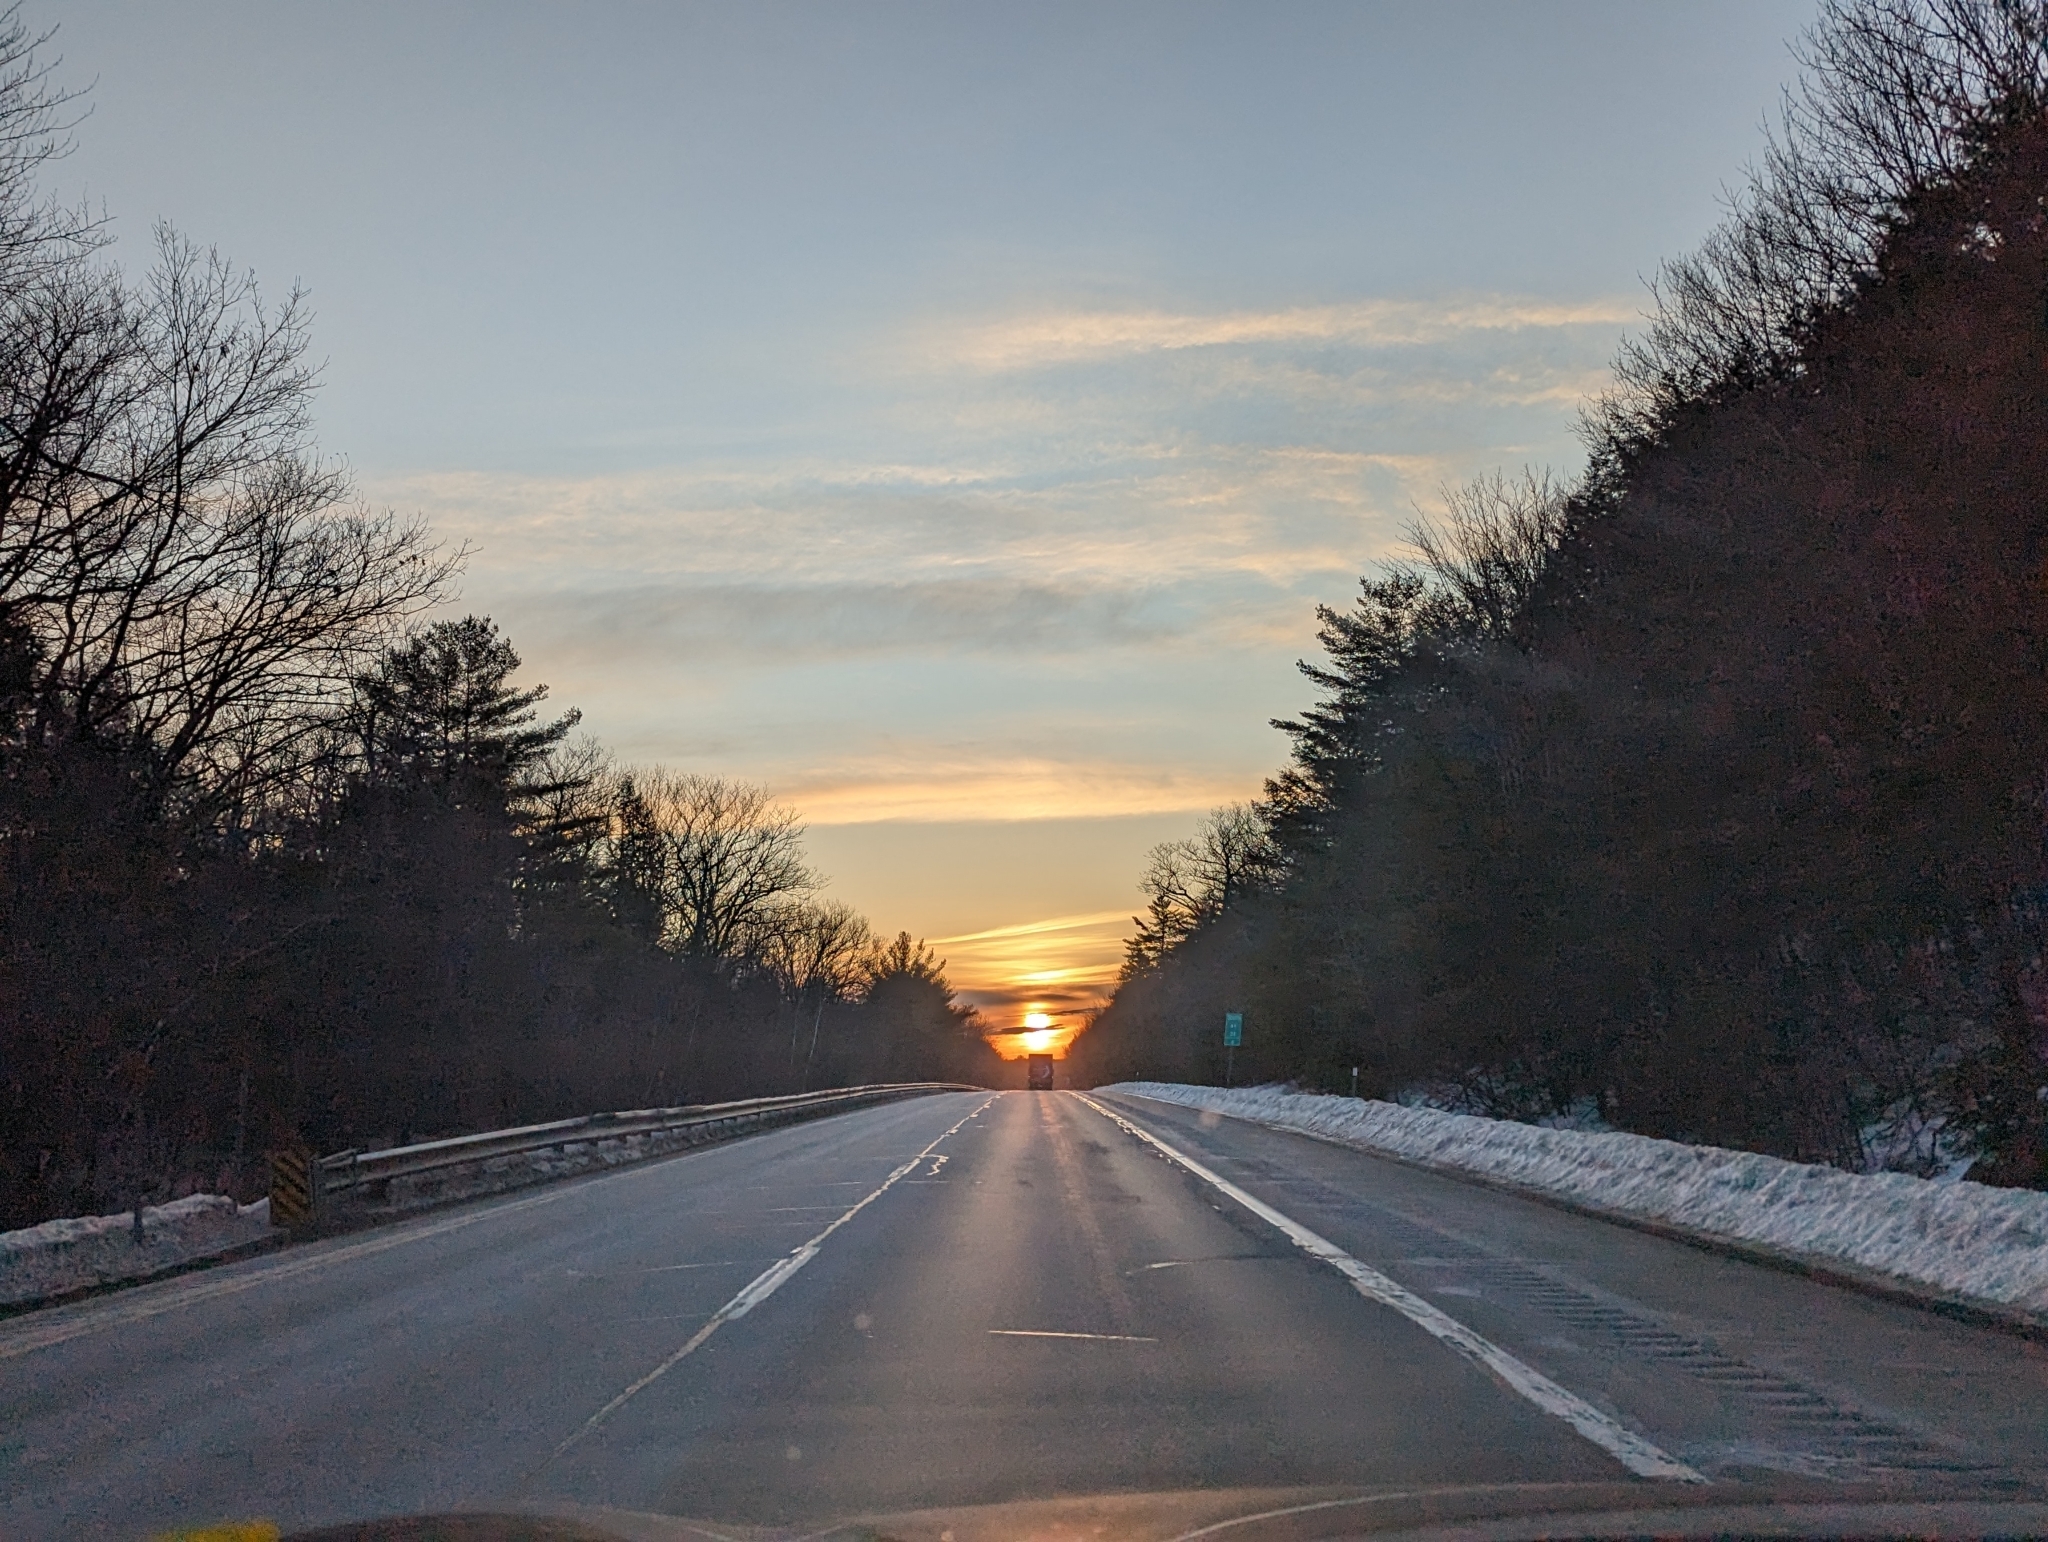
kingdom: Plantae
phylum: Tracheophyta
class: Pinopsida
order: Pinales
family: Pinaceae
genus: Pinus
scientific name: Pinus strobus
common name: Weymouth pine
